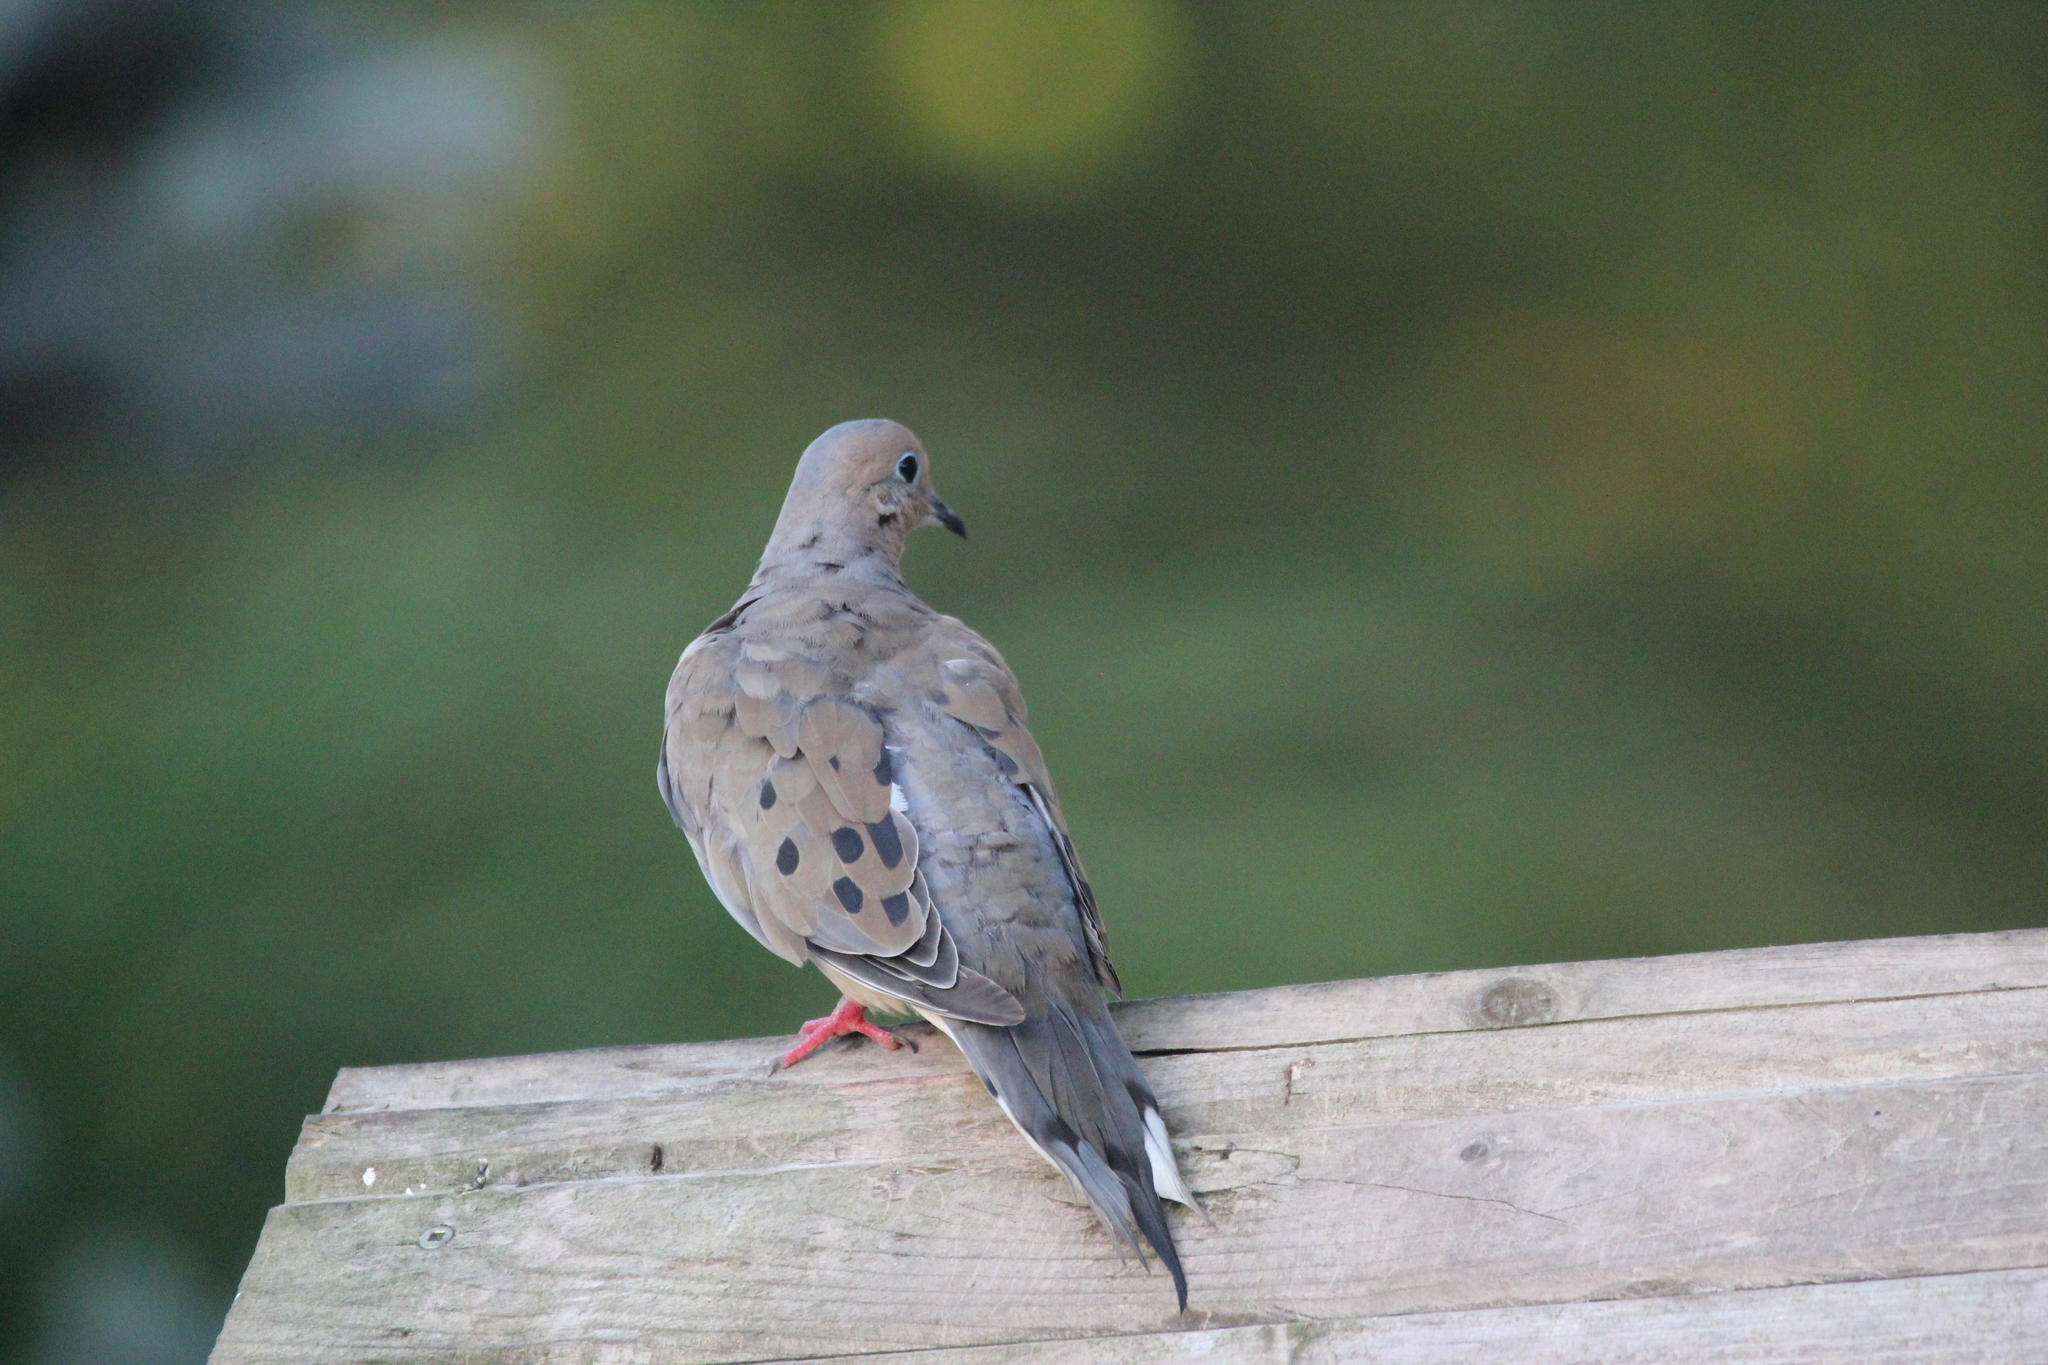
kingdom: Animalia
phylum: Chordata
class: Aves
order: Columbiformes
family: Columbidae
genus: Zenaida
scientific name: Zenaida macroura
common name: Mourning dove
